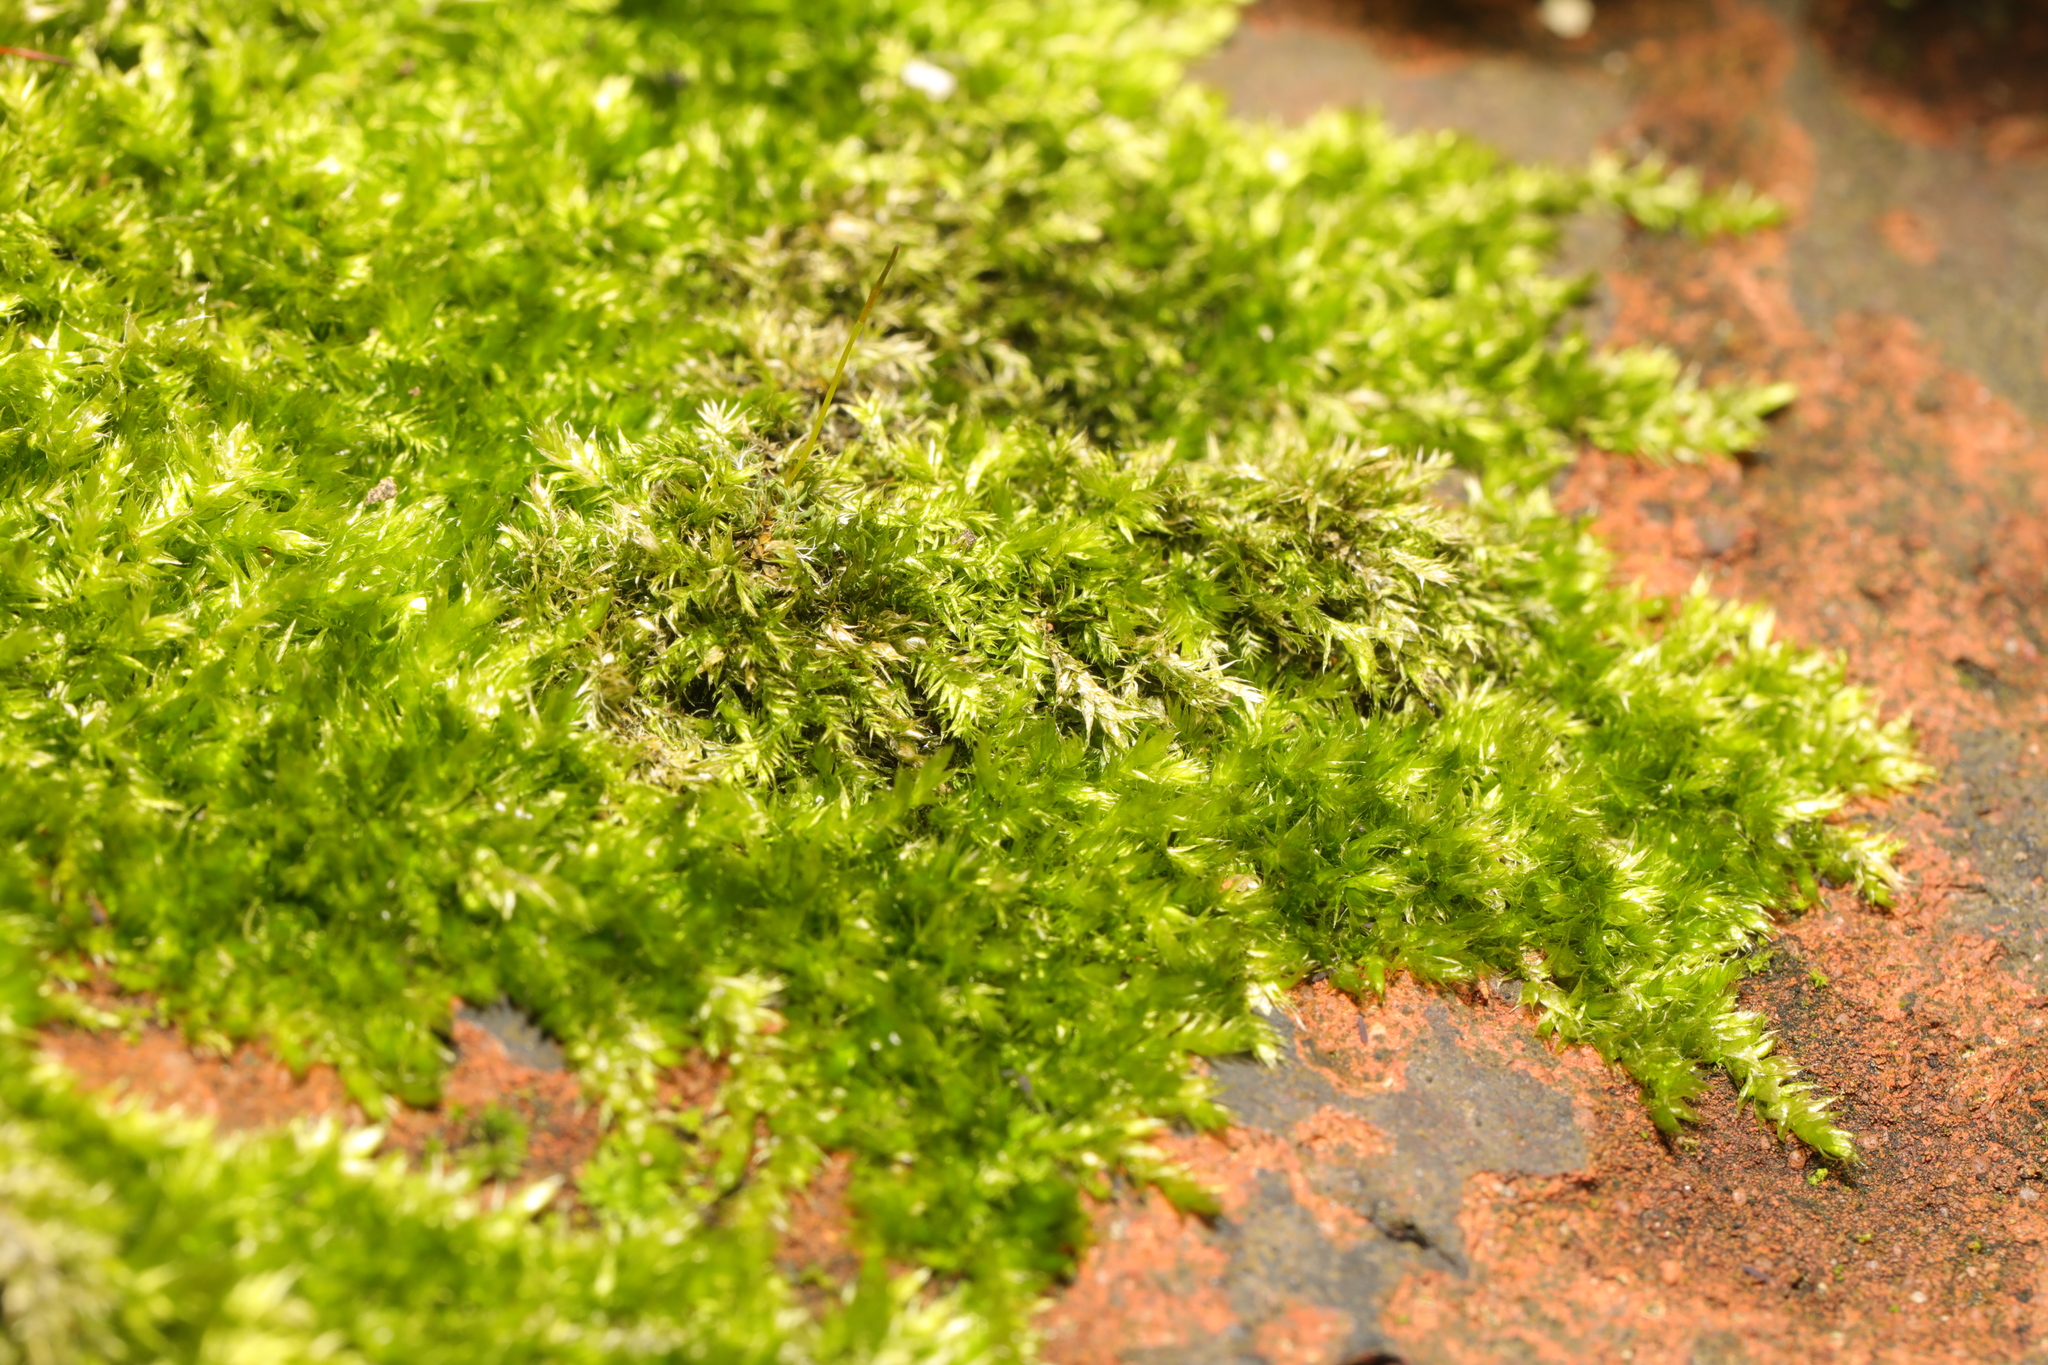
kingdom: Plantae
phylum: Bryophyta
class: Bryopsida
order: Hypnales
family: Brachytheciaceae
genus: Homalothecium
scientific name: Homalothecium sericeum
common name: Silky wall feather-moss
